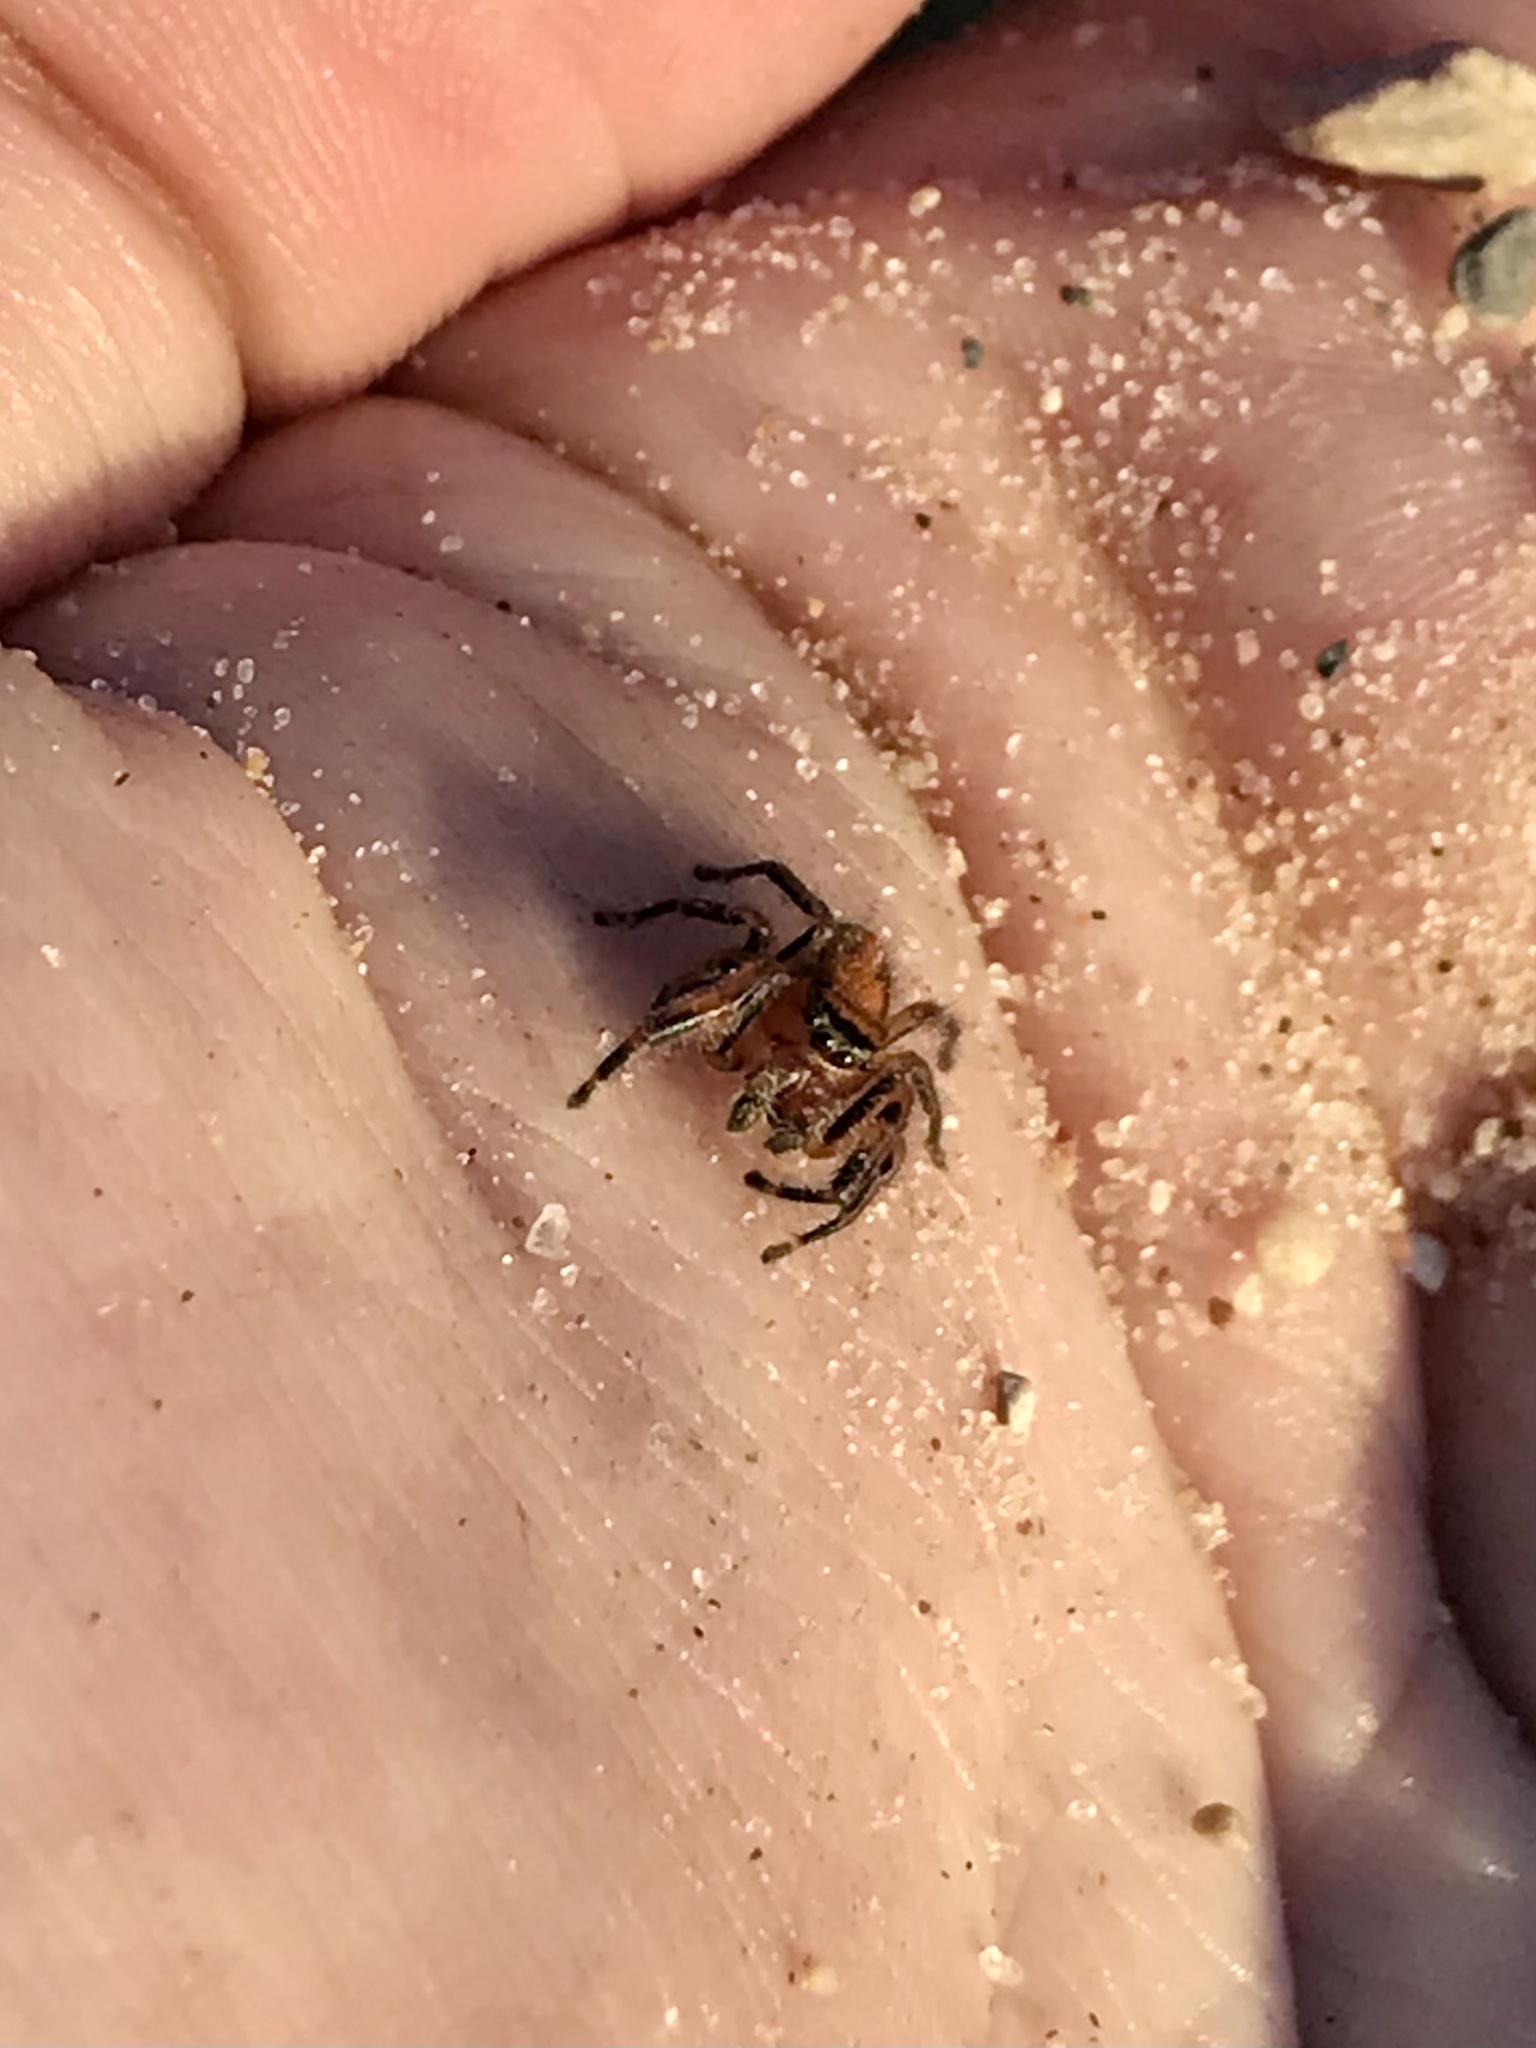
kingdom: Animalia
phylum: Arthropoda
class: Arachnida
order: Araneae
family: Salticidae
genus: Phidippus
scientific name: Phidippus pius
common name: Jumping spiders
